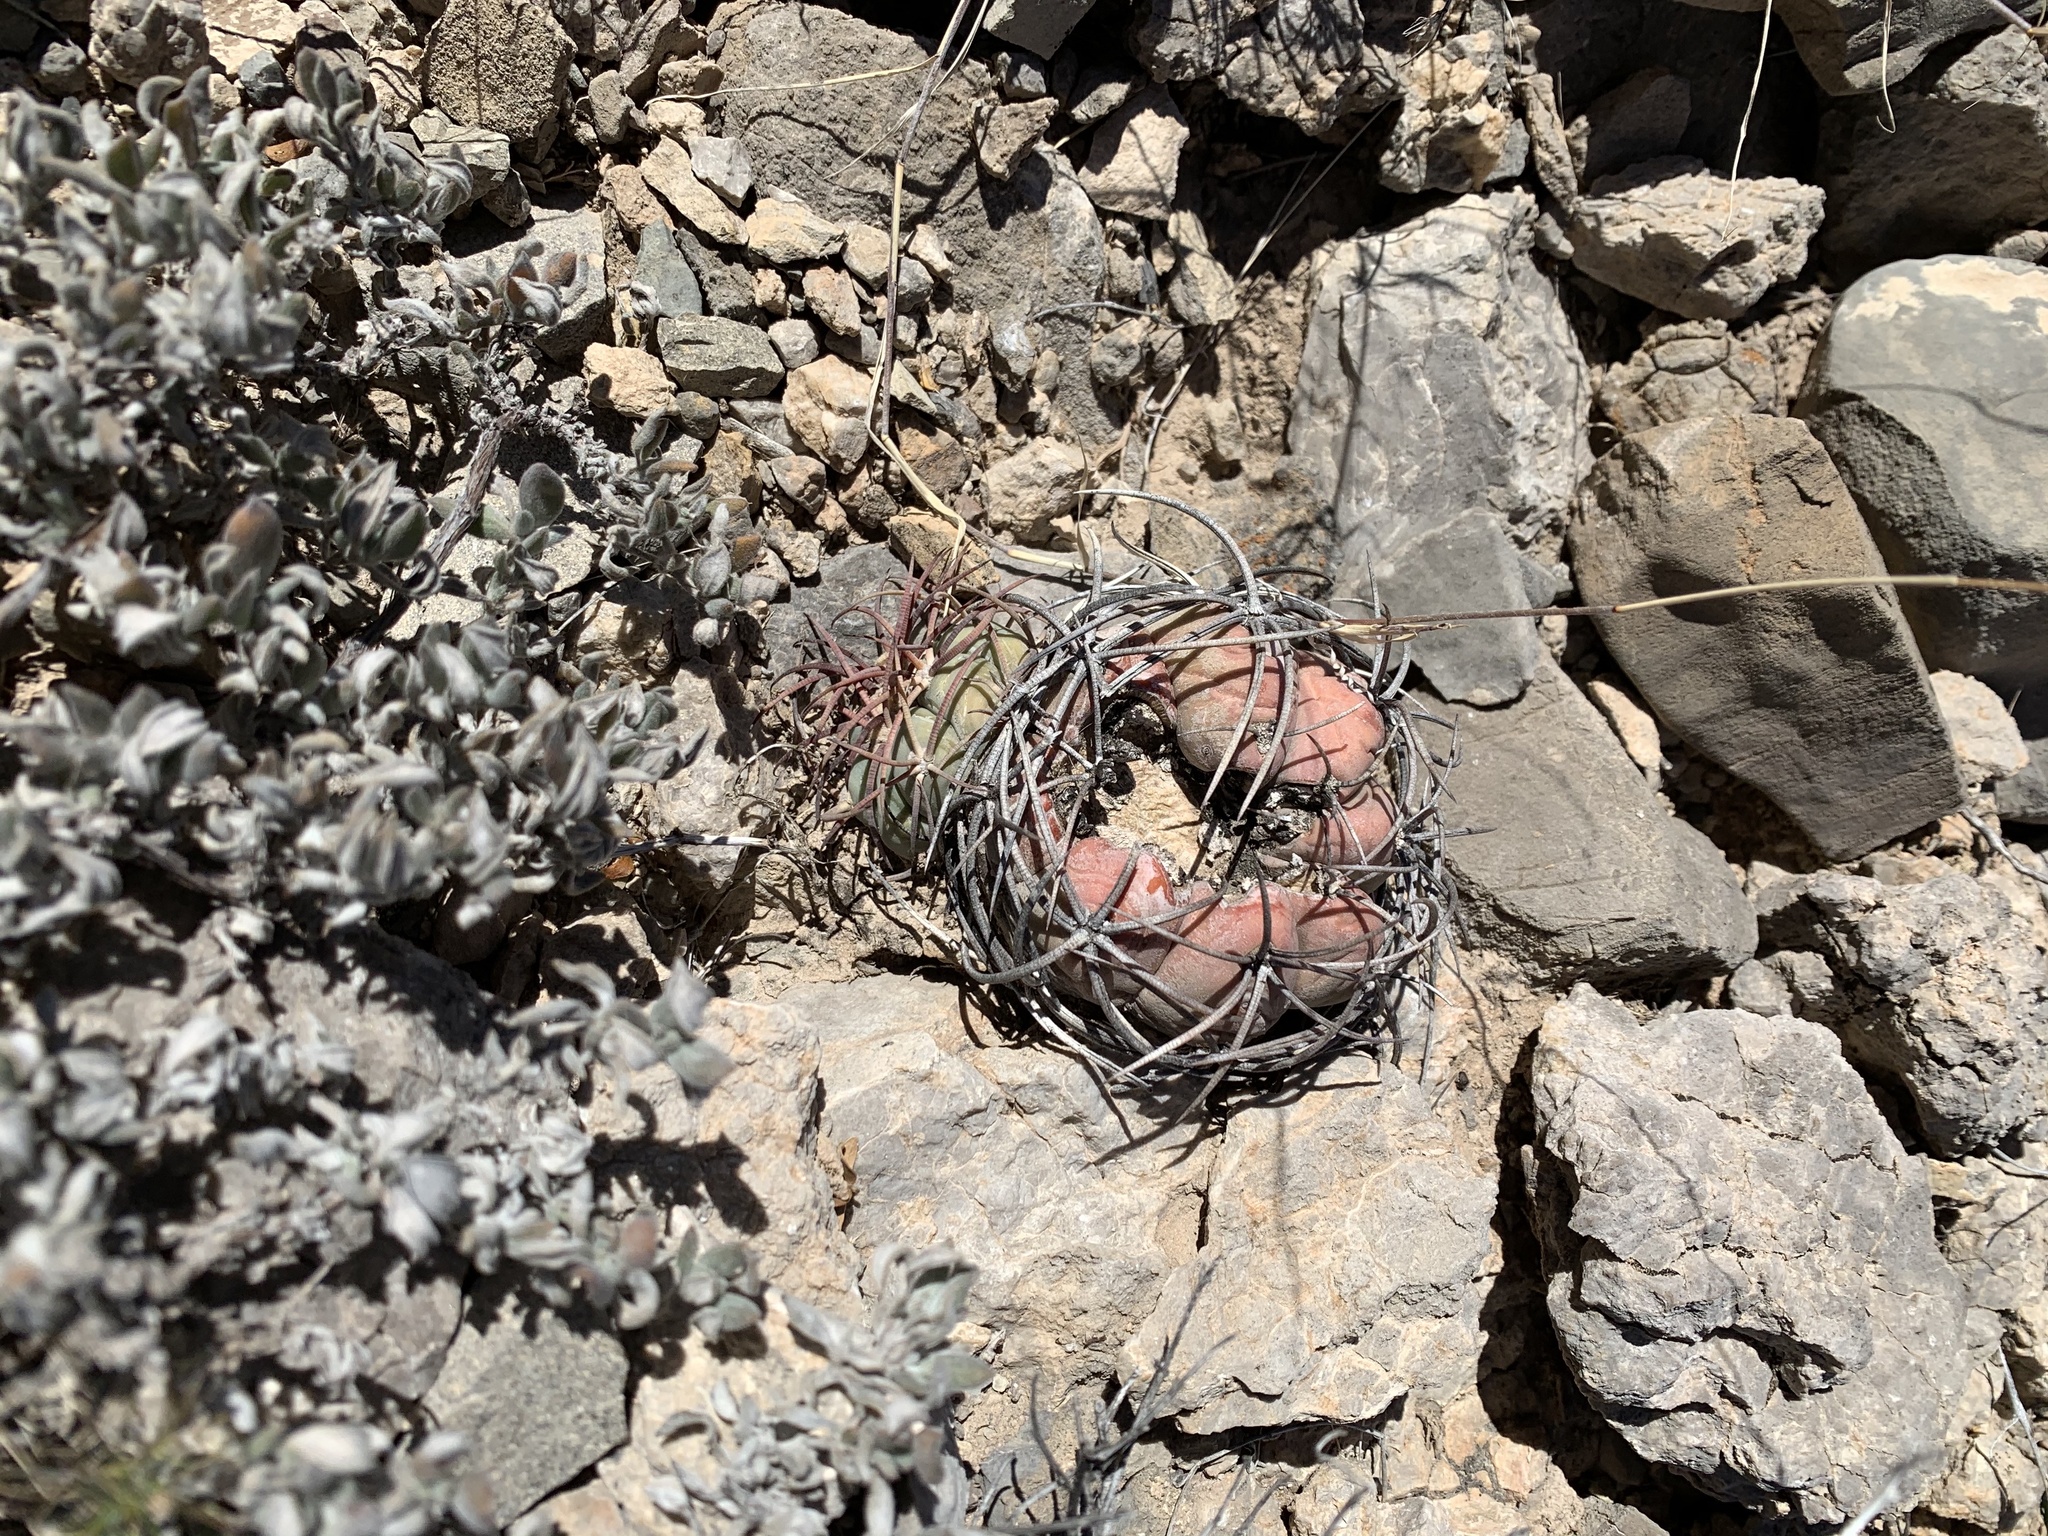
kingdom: Plantae
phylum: Tracheophyta
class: Magnoliopsida
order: Caryophyllales
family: Cactaceae
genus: Echinocactus
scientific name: Echinocactus horizonthalonius
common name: Devilshead
